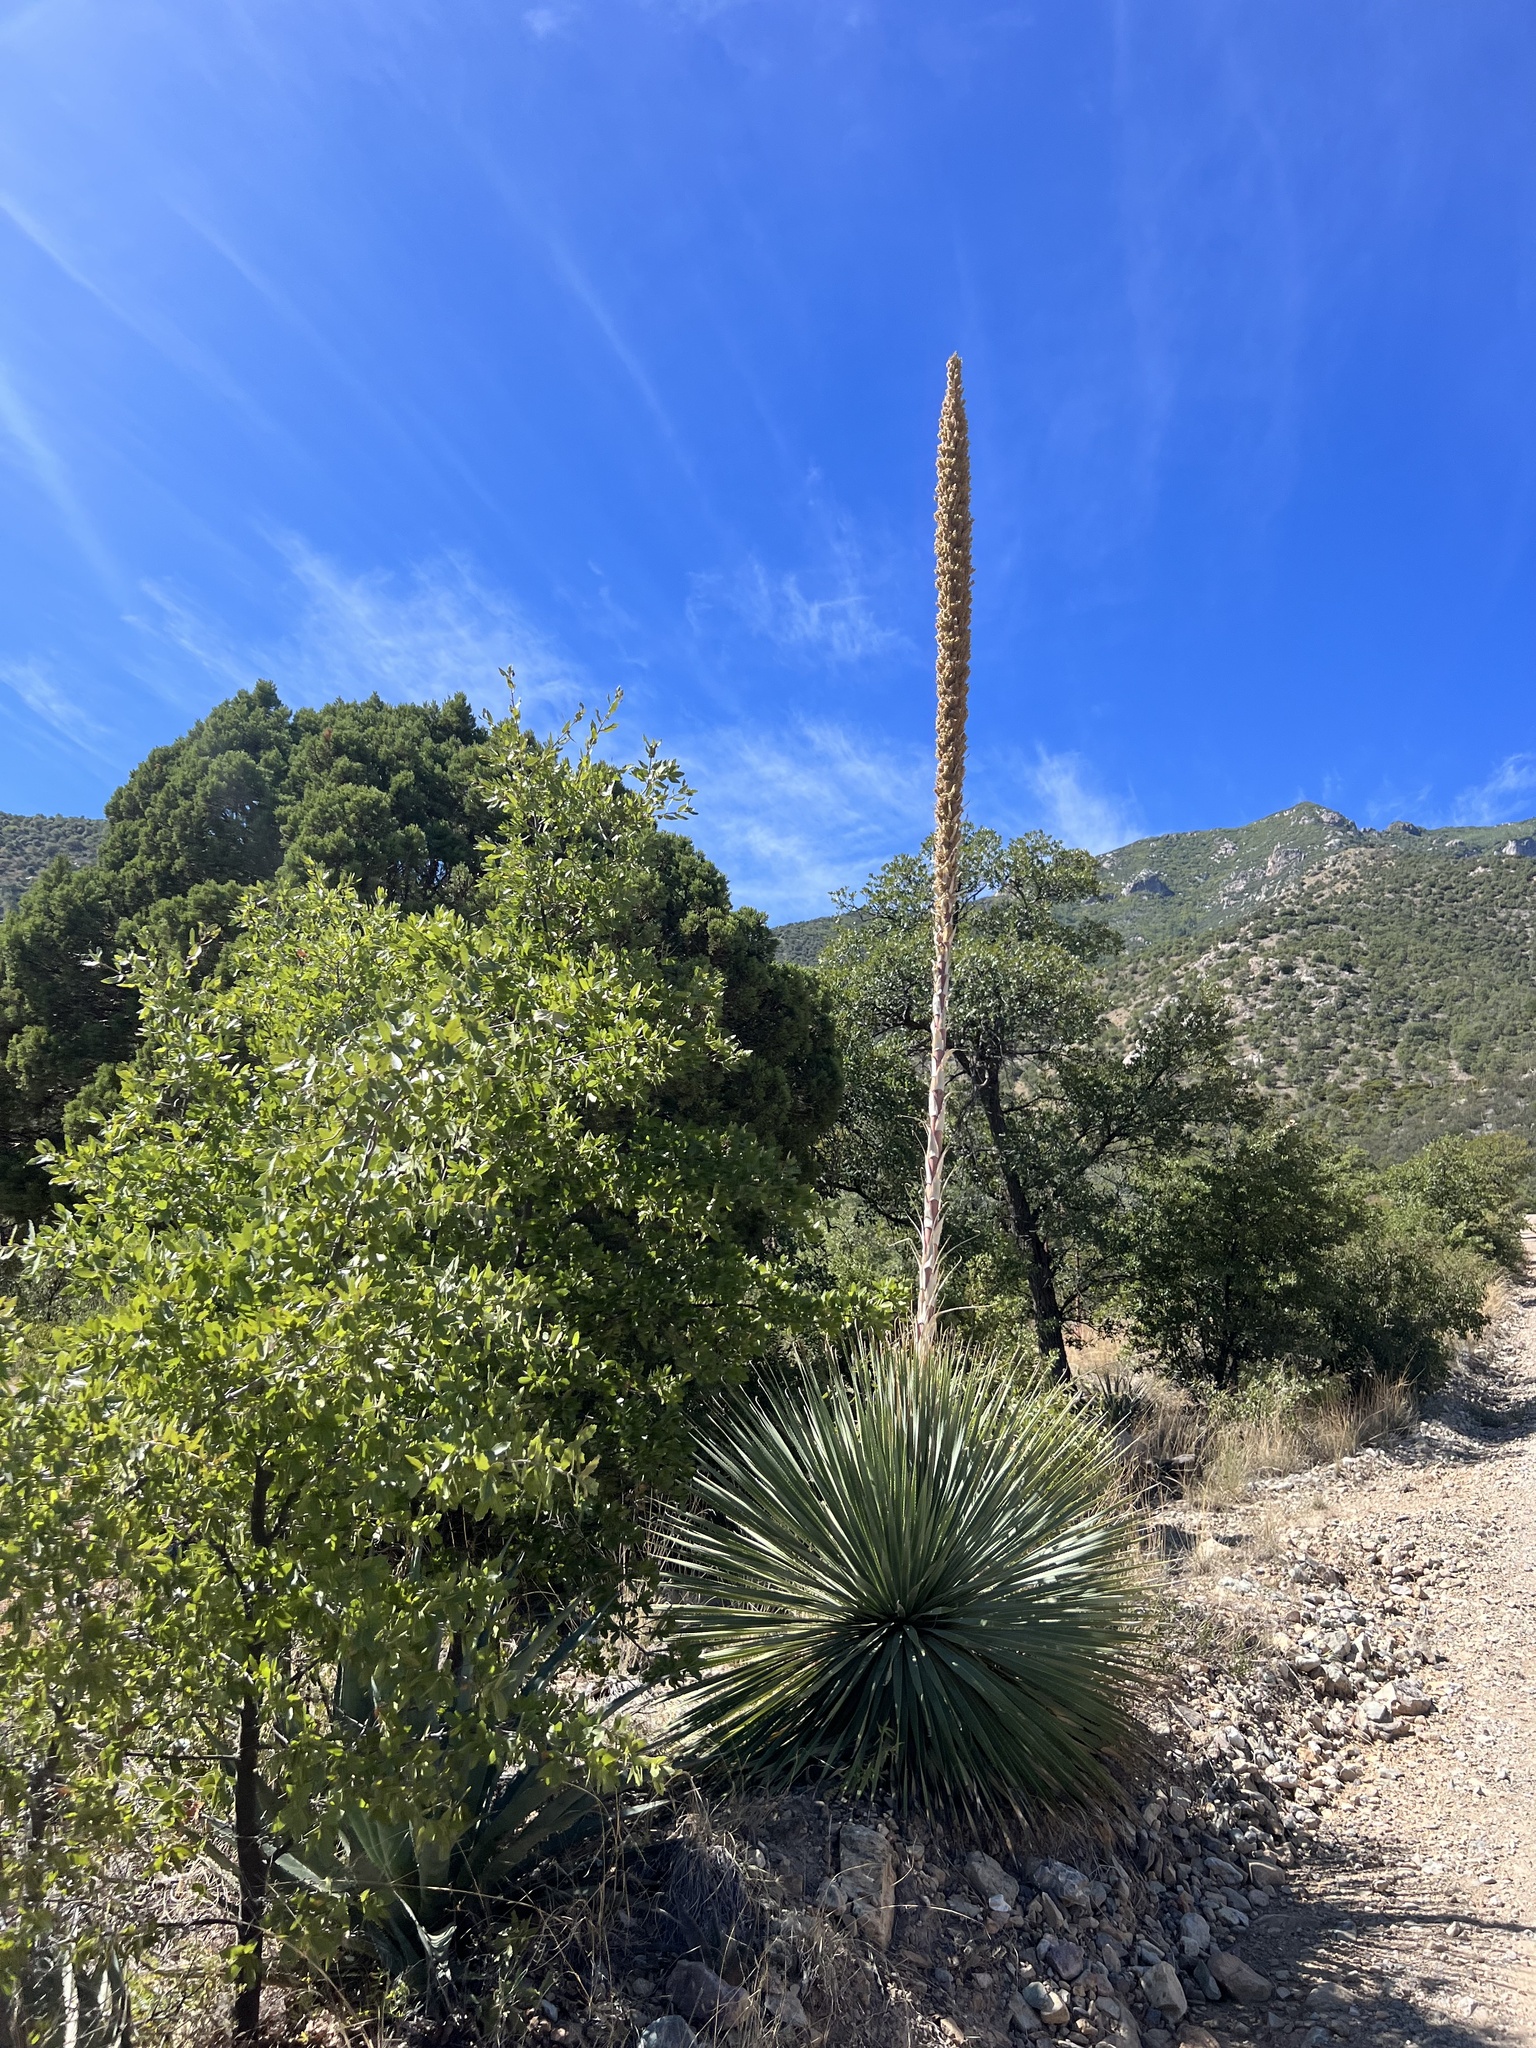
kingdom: Plantae
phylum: Tracheophyta
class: Liliopsida
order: Asparagales
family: Asparagaceae
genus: Dasylirion
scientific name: Dasylirion wheeleri
